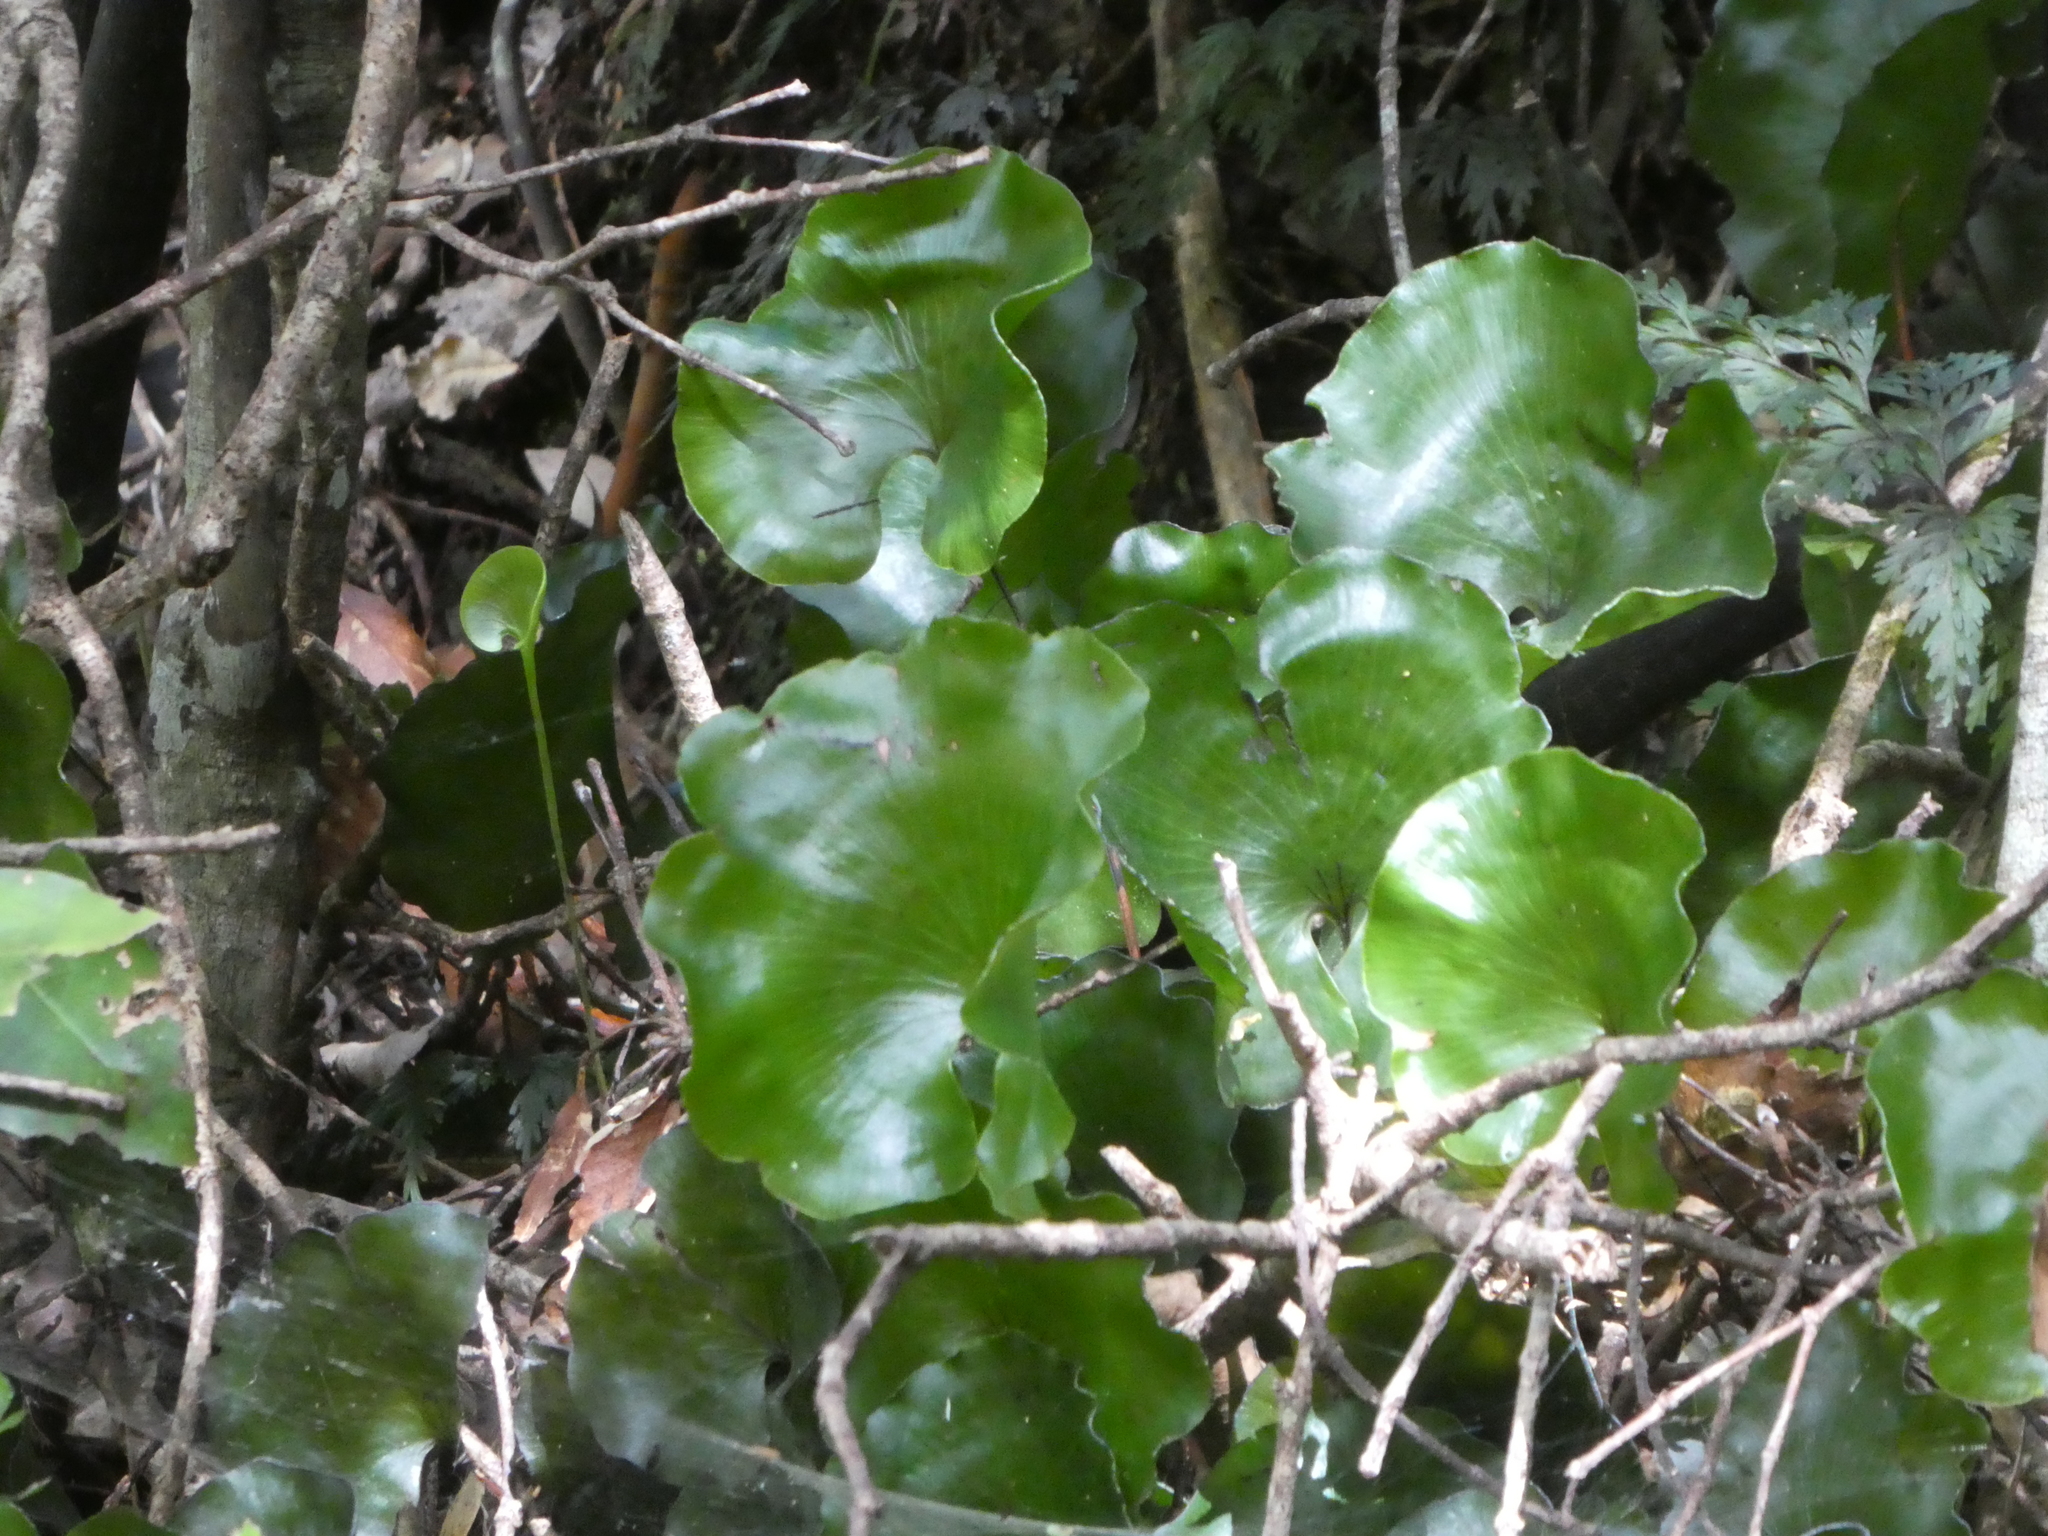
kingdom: Plantae
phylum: Tracheophyta
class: Polypodiopsida
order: Hymenophyllales
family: Hymenophyllaceae
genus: Hymenophyllum
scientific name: Hymenophyllum nephrophyllum
